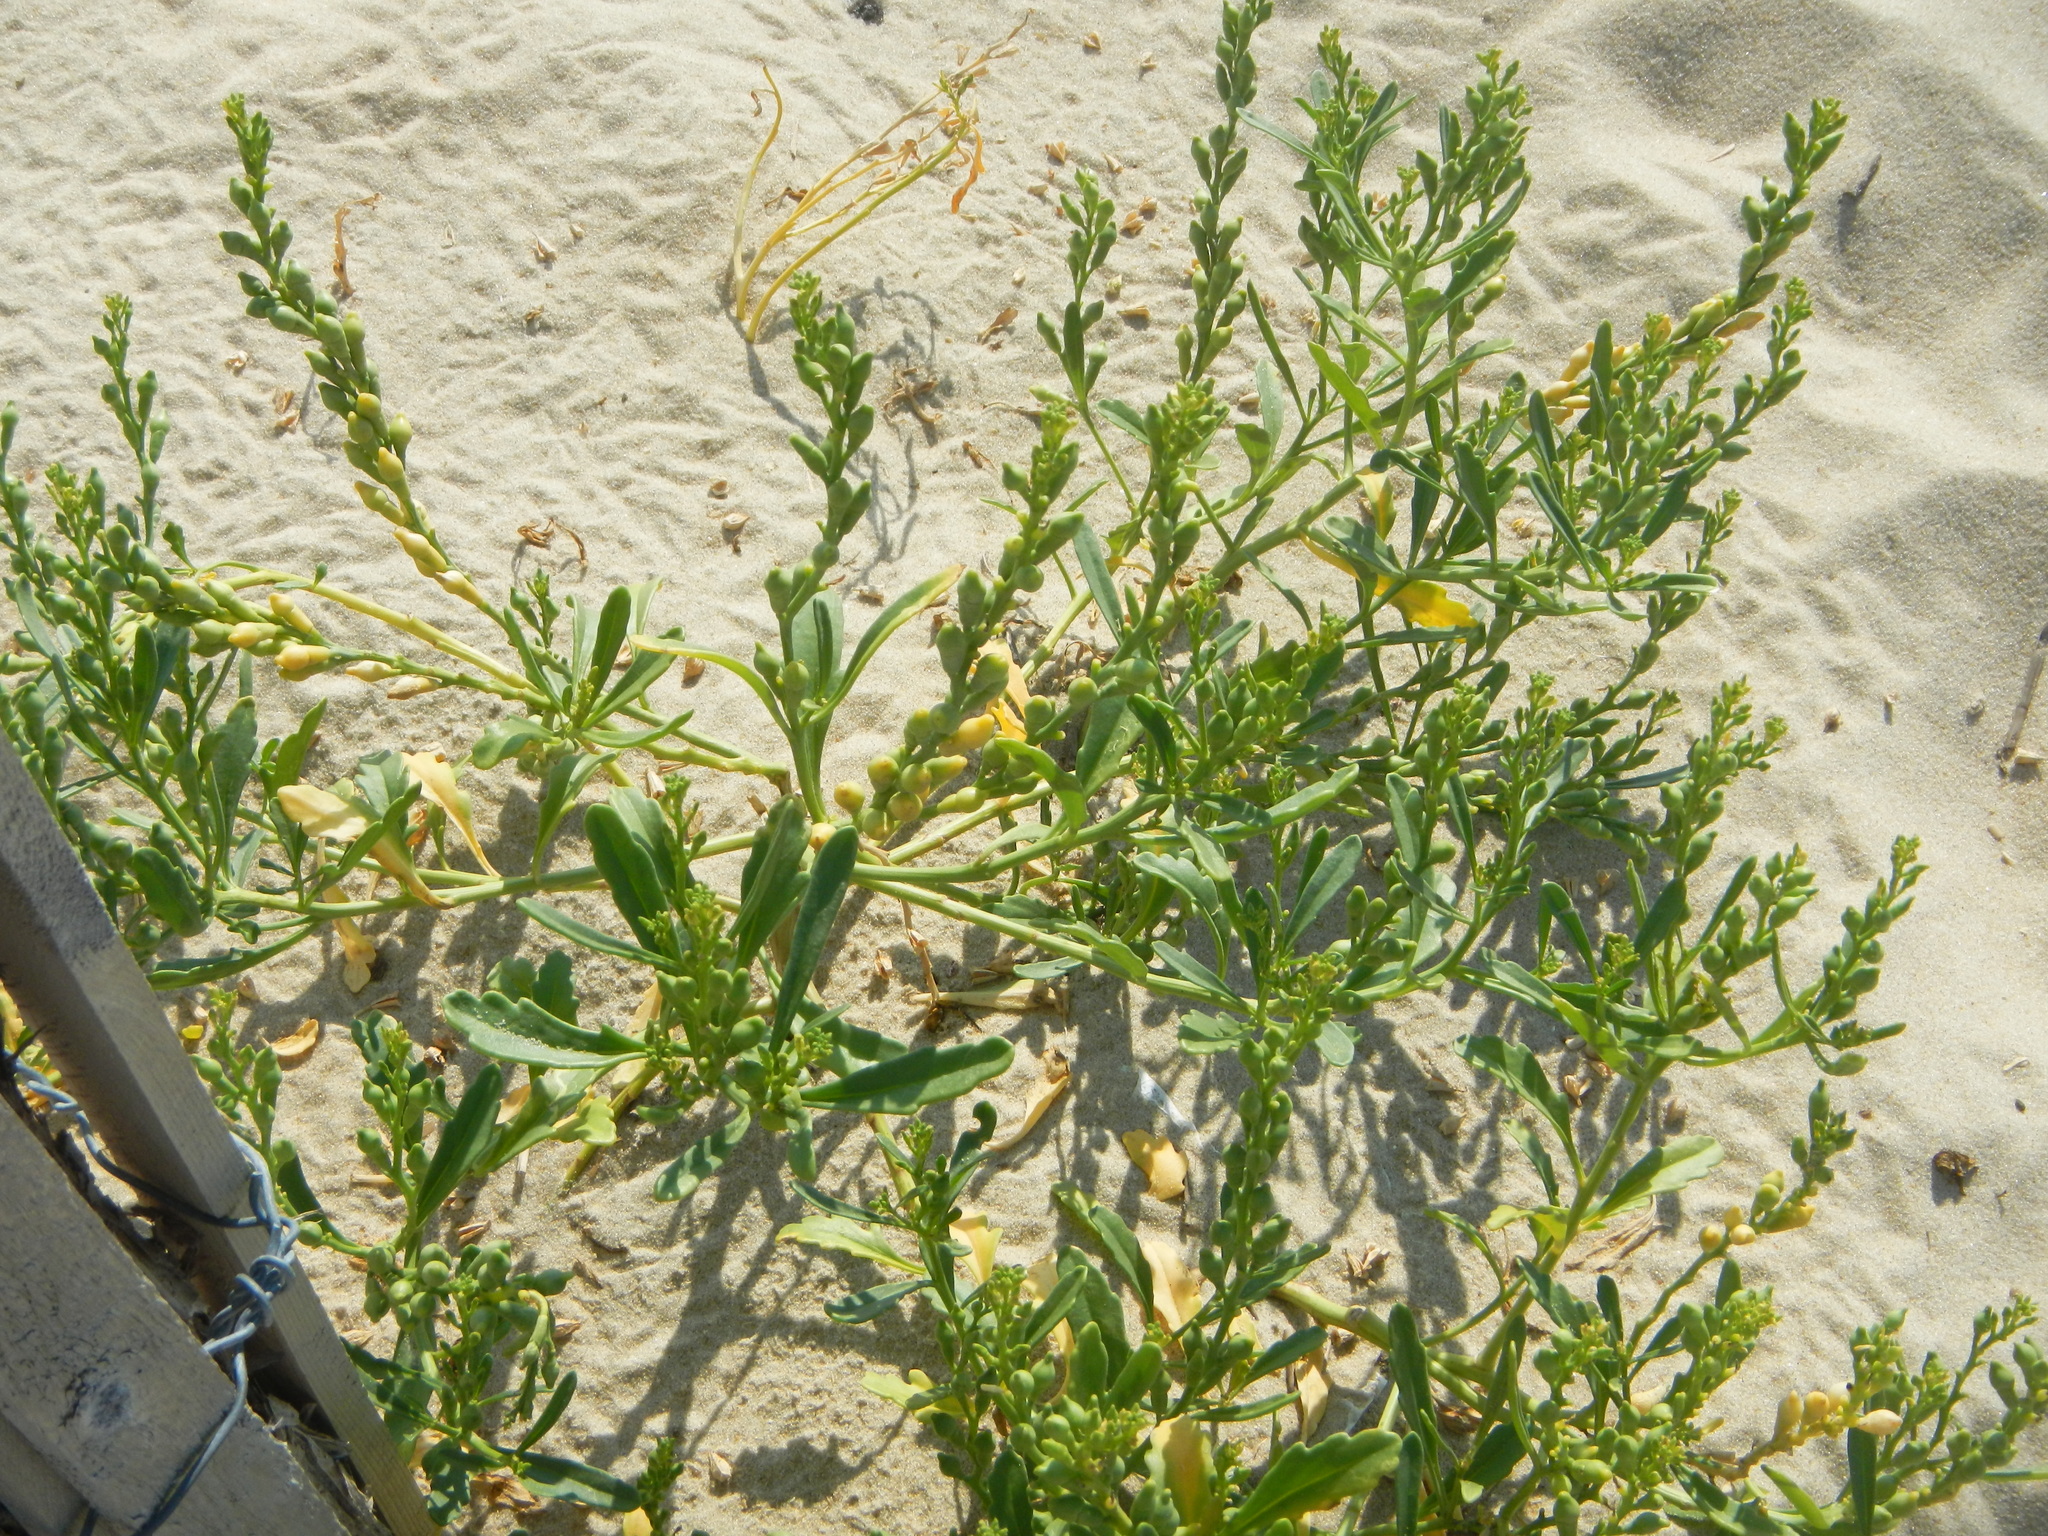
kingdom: Plantae
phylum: Tracheophyta
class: Magnoliopsida
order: Brassicales
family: Brassicaceae
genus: Cakile
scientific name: Cakile edentula
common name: American sea rocket
